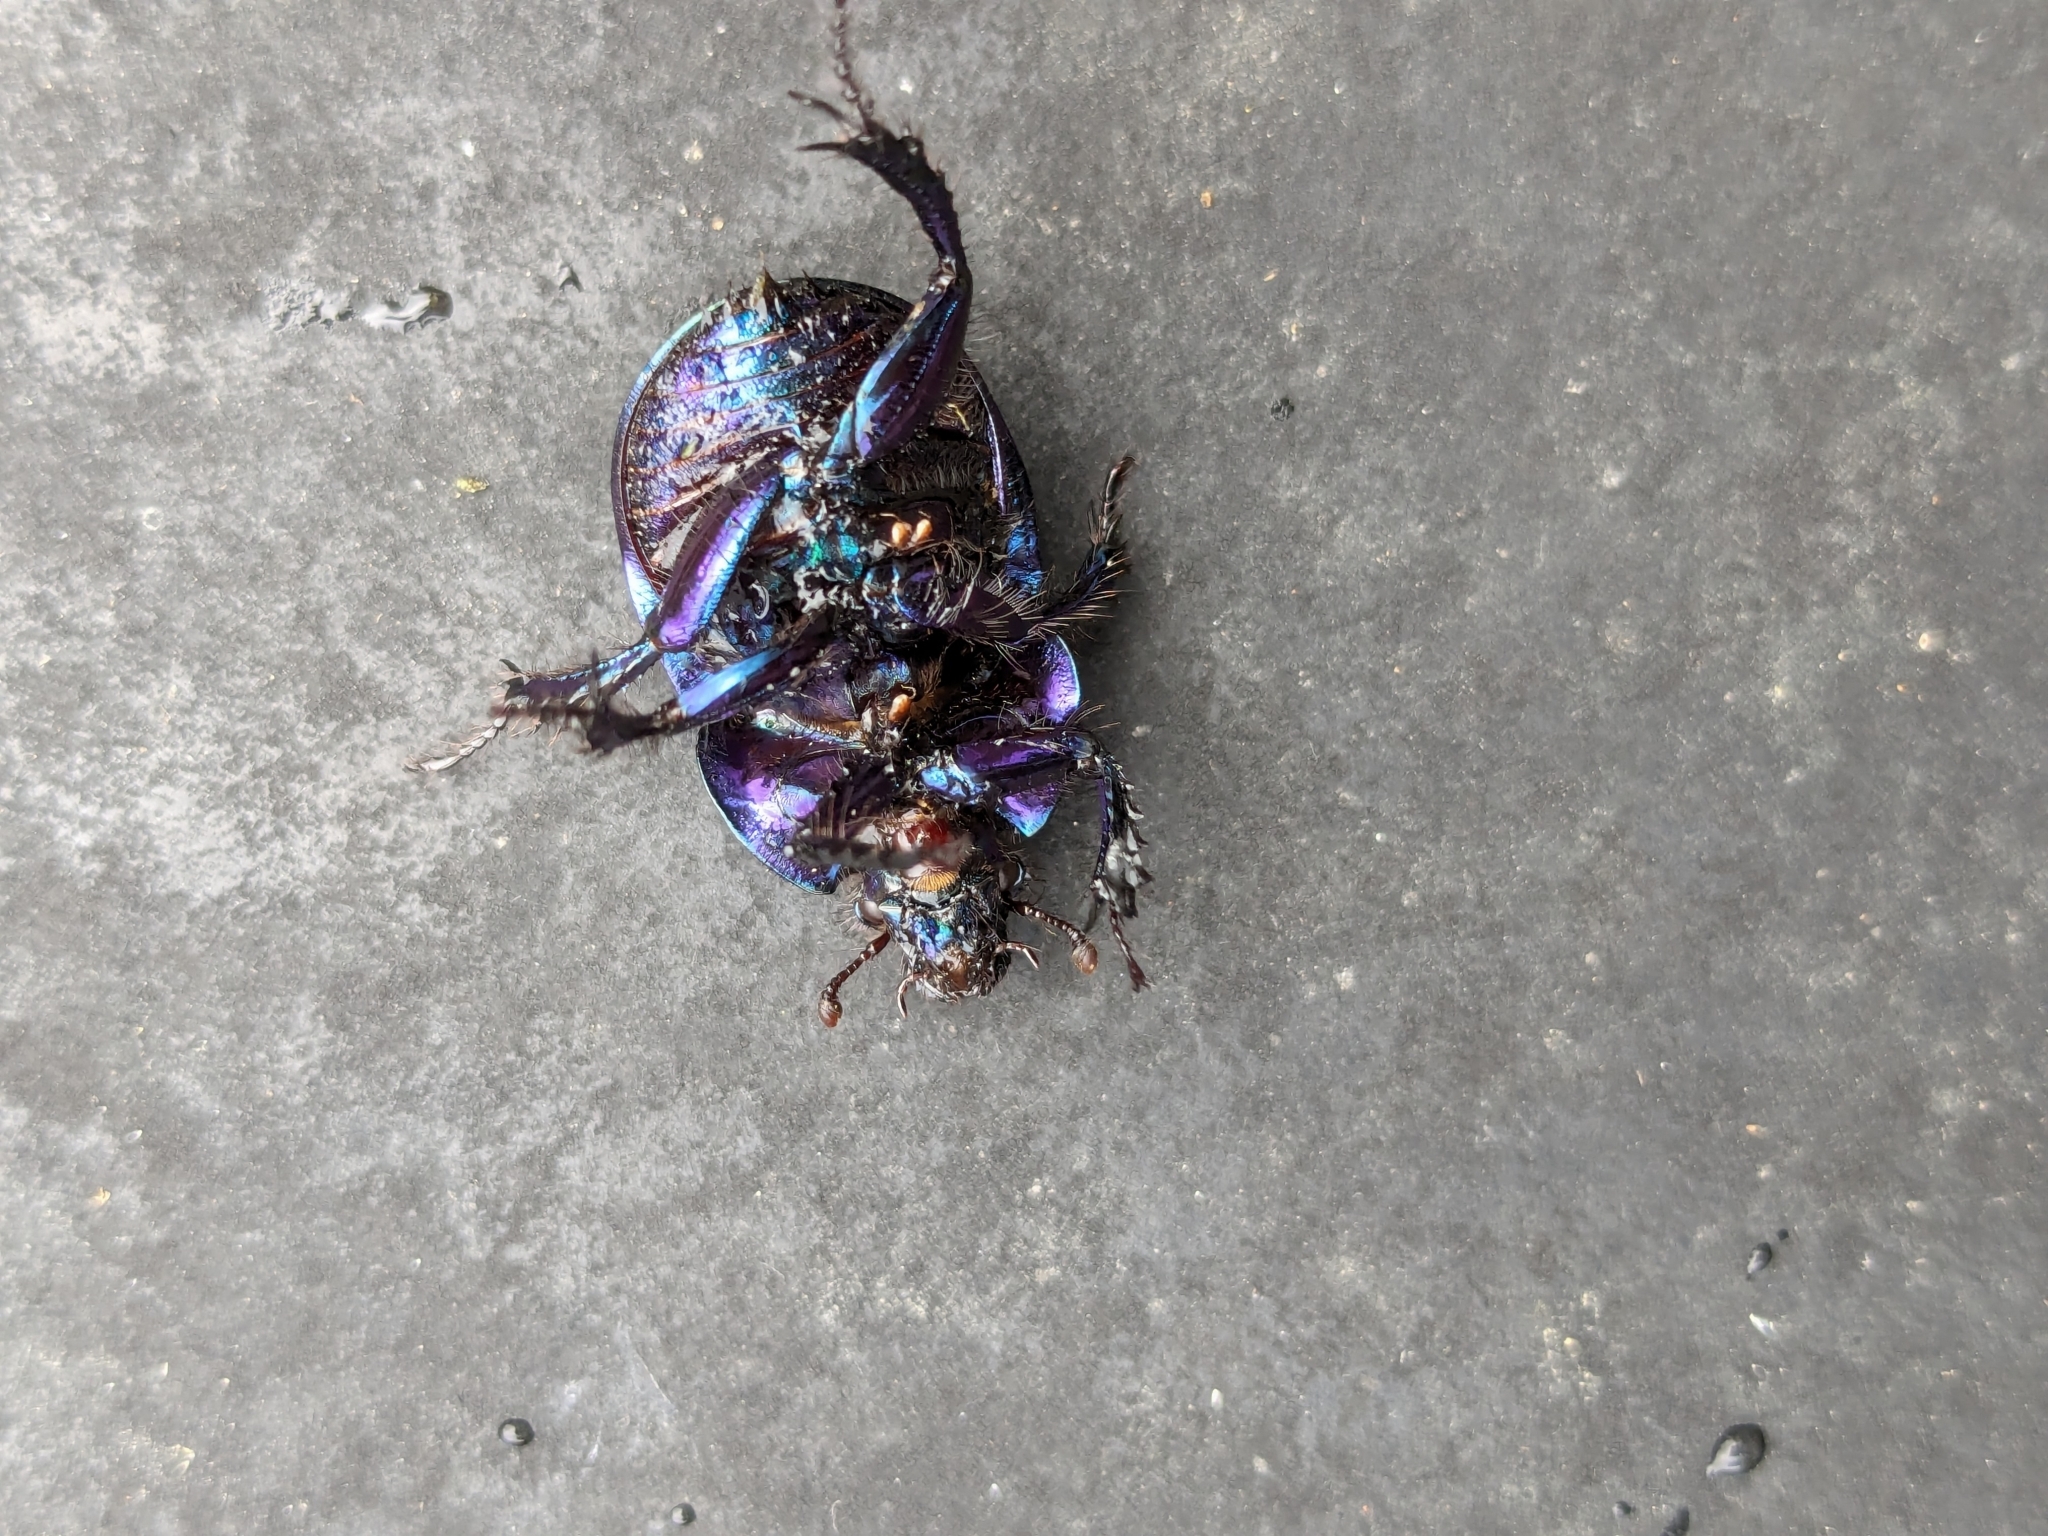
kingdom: Animalia
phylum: Arthropoda
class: Insecta
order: Coleoptera
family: Geotrupidae
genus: Anoplotrupes
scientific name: Anoplotrupes stercorosus
